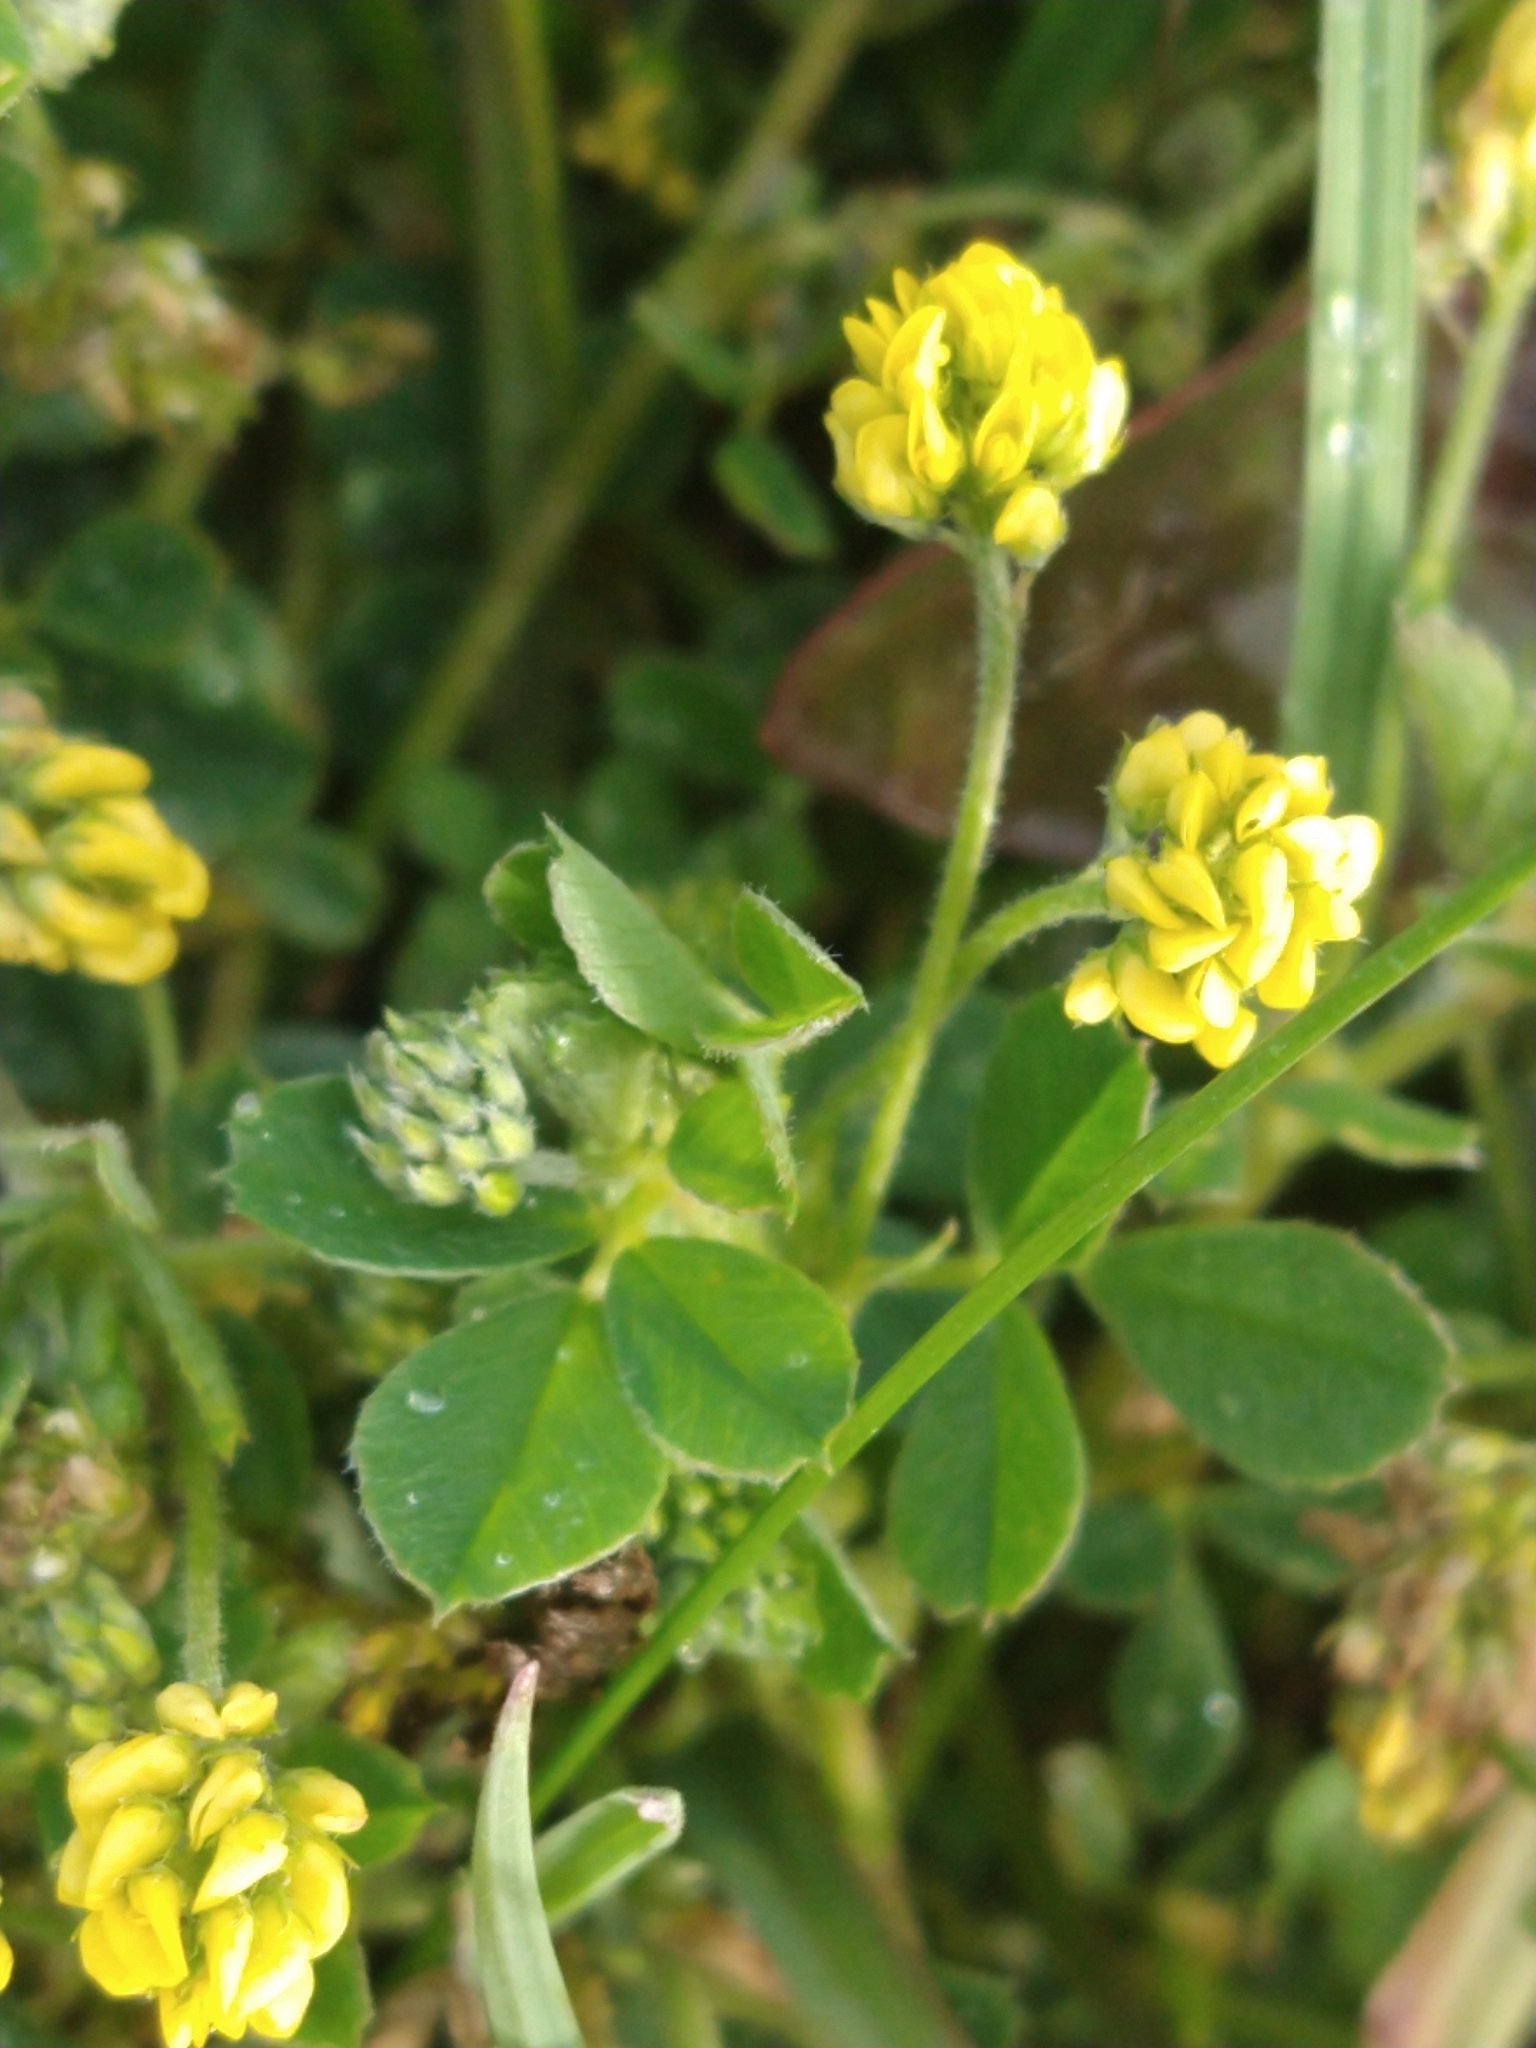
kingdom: Plantae
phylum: Tracheophyta
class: Magnoliopsida
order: Fabales
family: Fabaceae
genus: Medicago
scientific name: Medicago lupulina
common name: Black medick
